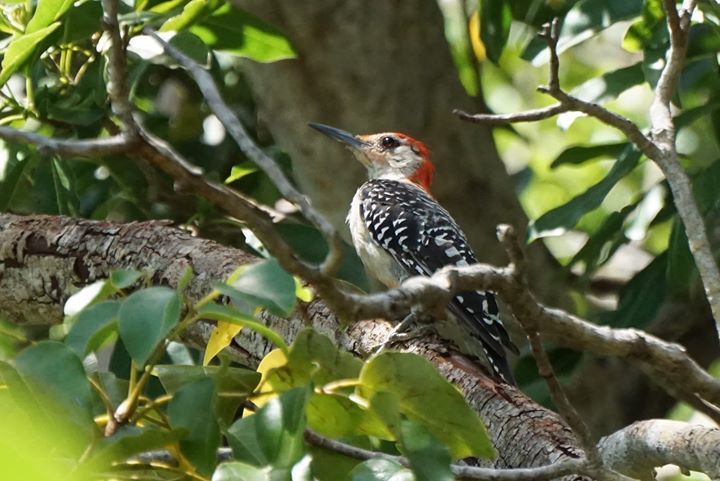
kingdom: Animalia
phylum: Chordata
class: Aves
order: Piciformes
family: Picidae
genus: Melanerpes
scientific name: Melanerpes carolinus
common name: Red-bellied woodpecker
